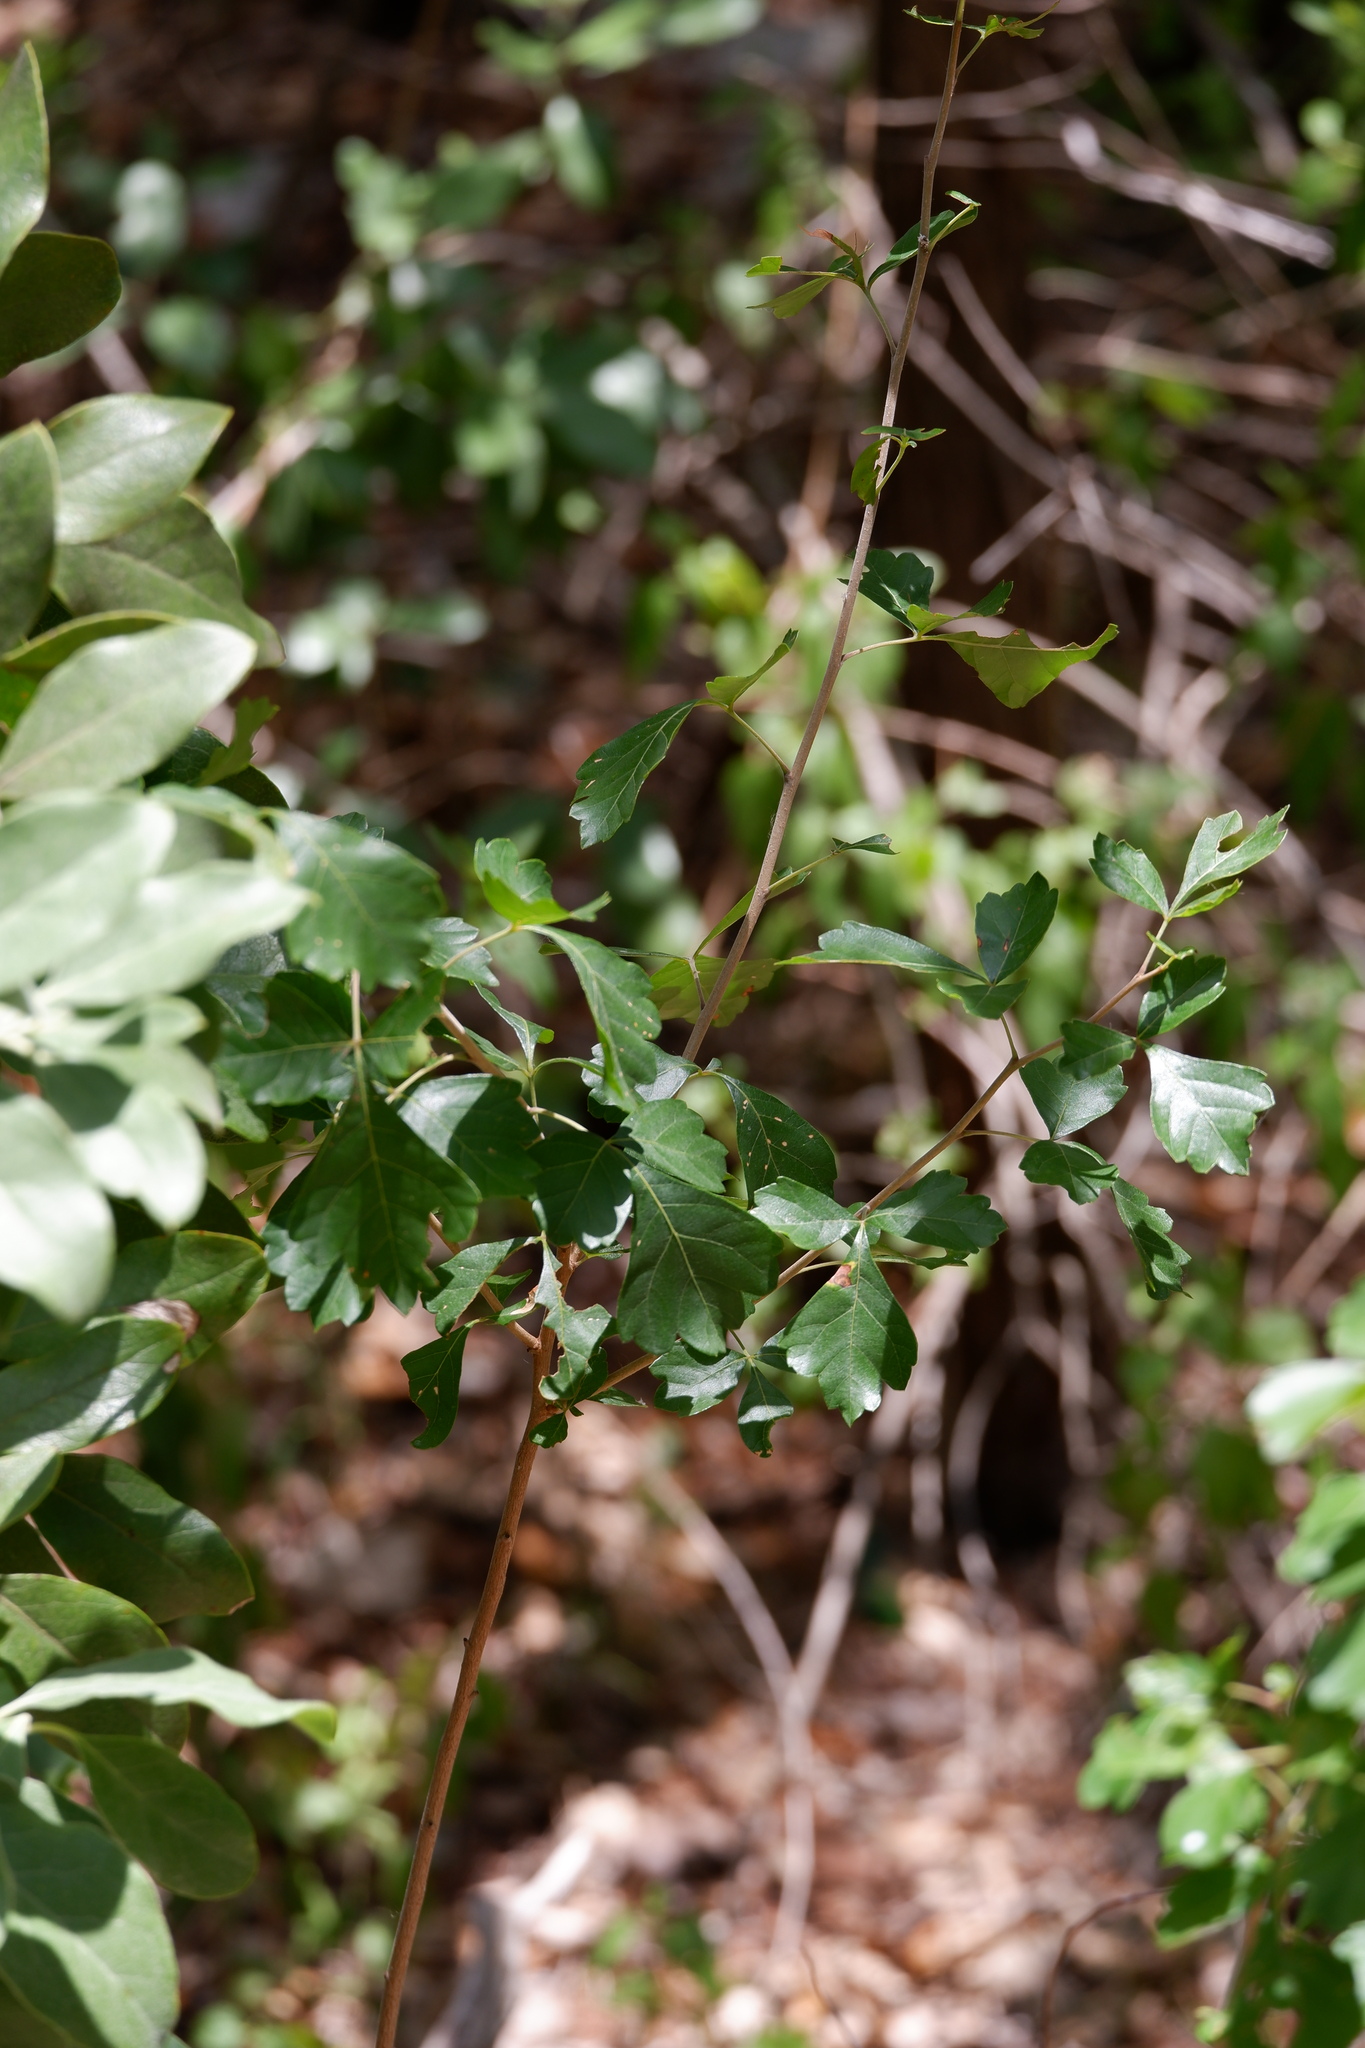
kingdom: Plantae
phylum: Tracheophyta
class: Magnoliopsida
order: Sapindales
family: Anacardiaceae
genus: Rhus
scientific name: Rhus trilobata
